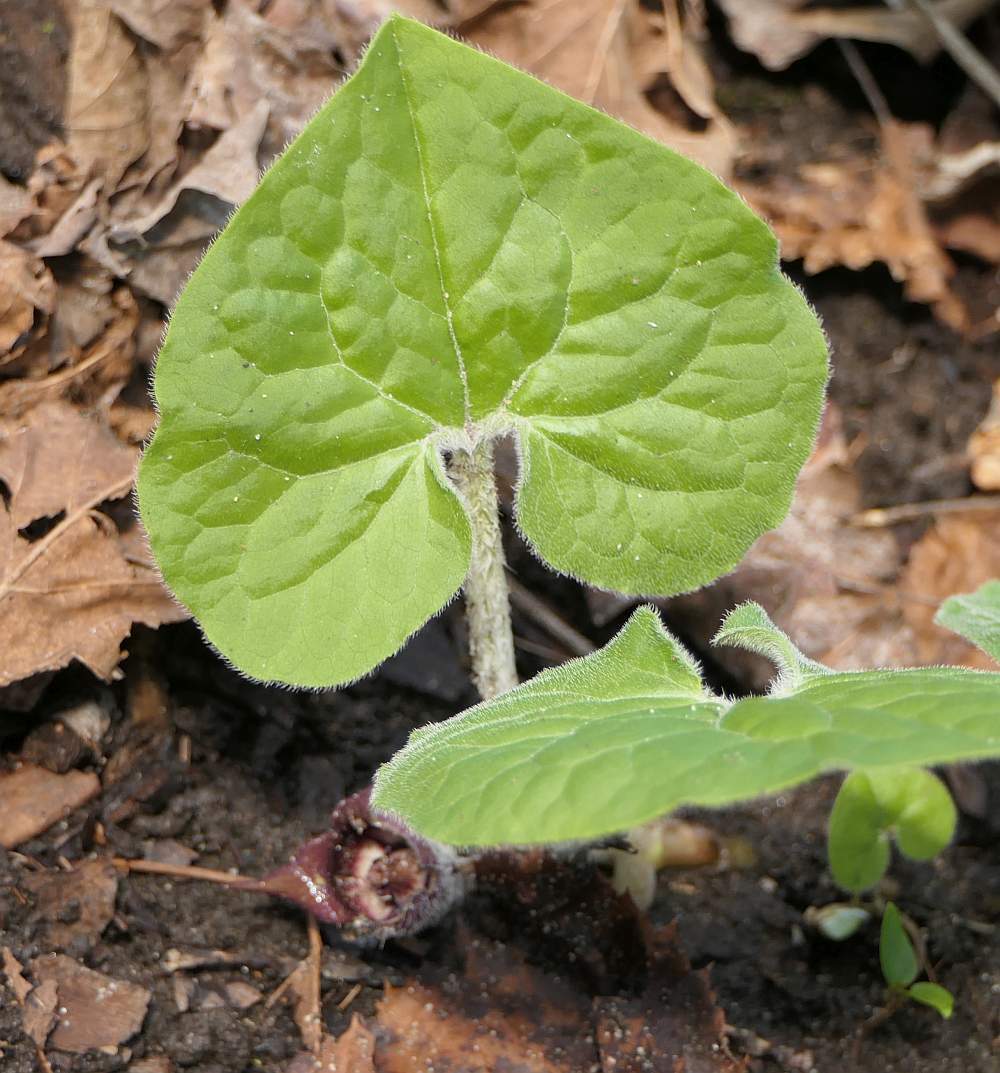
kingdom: Plantae
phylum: Tracheophyta
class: Magnoliopsida
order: Piperales
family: Aristolochiaceae
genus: Asarum
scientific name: Asarum canadense
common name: Wild ginger
